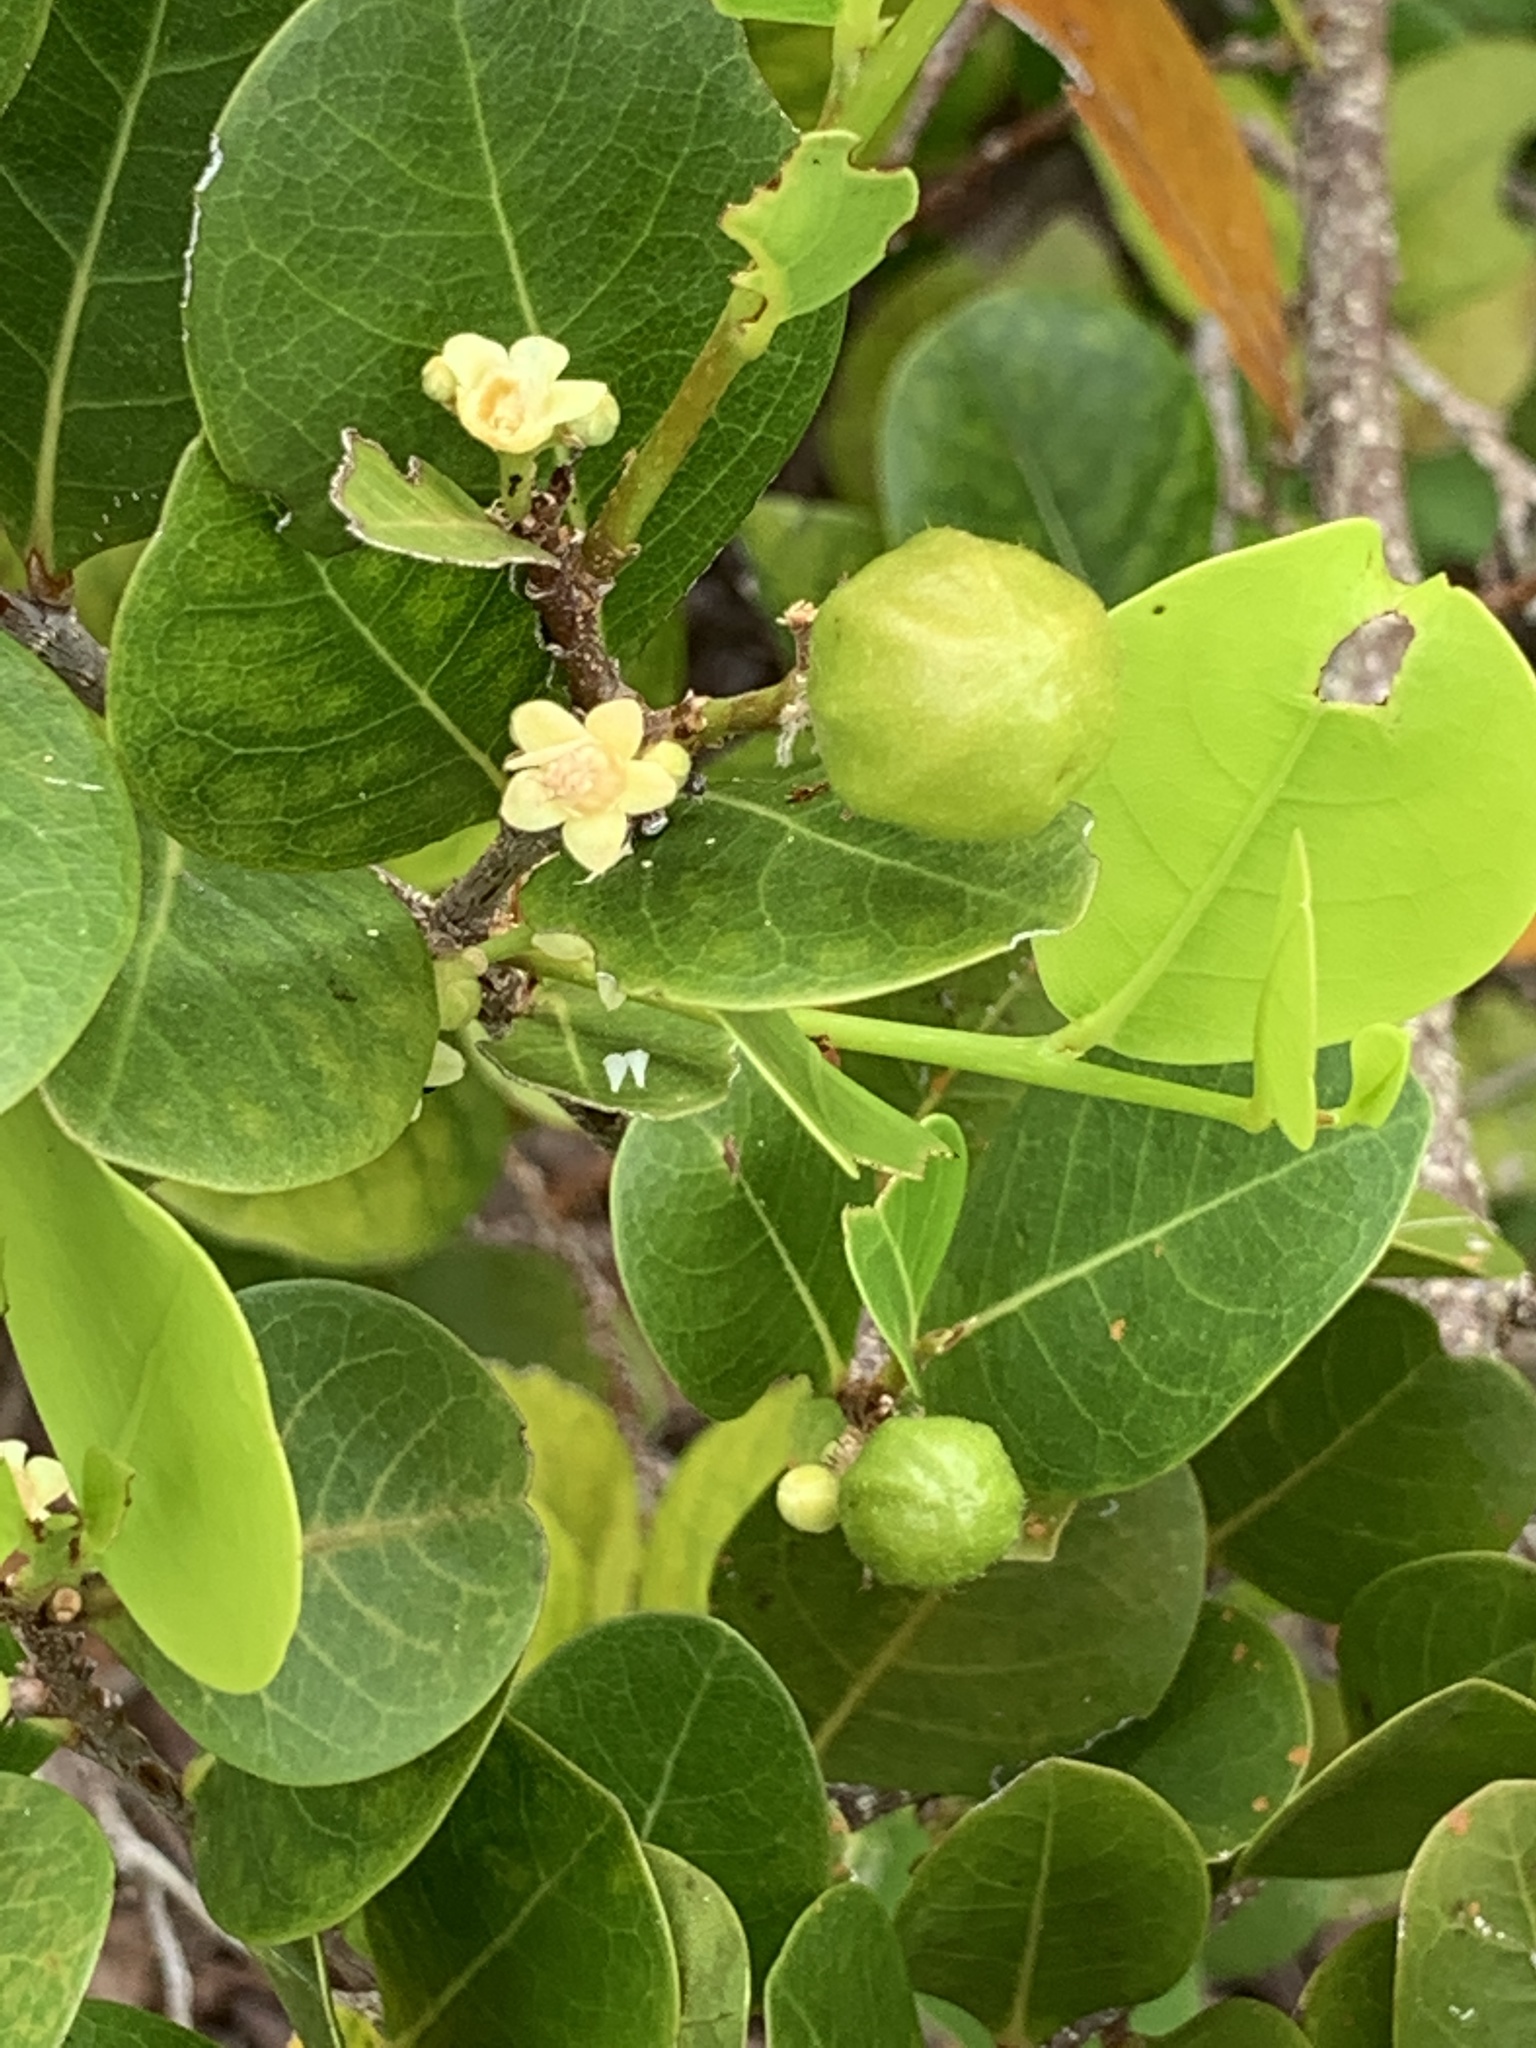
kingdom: Plantae
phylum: Tracheophyta
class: Magnoliopsida
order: Malpighiales
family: Chrysobalanaceae
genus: Chrysobalanus
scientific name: Chrysobalanus icaco
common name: Coco plum
